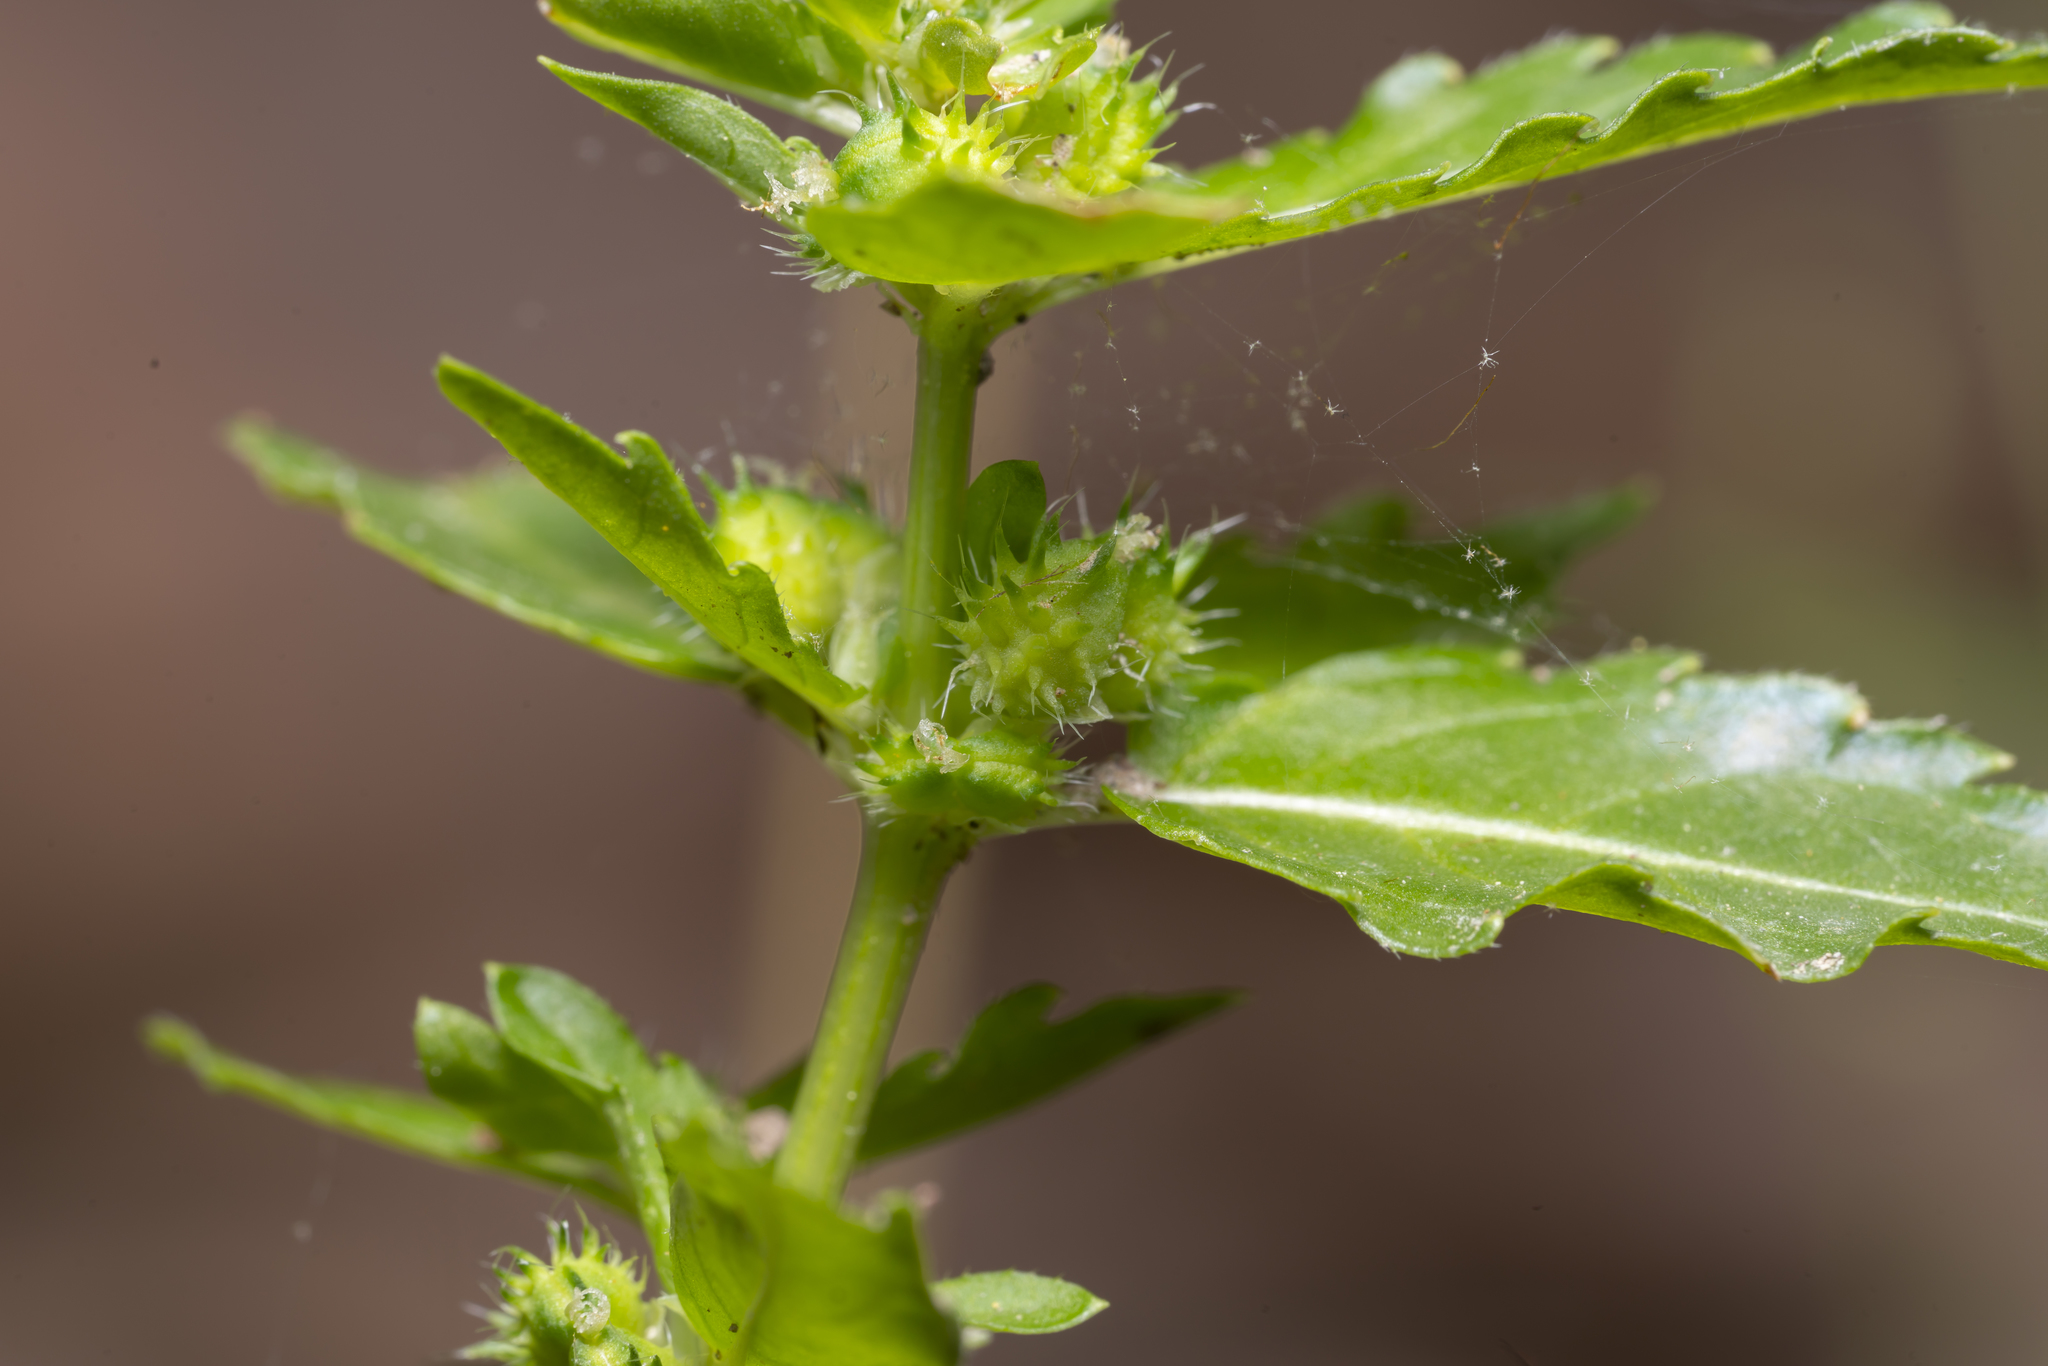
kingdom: Plantae
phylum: Tracheophyta
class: Magnoliopsida
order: Malpighiales
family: Euphorbiaceae
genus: Mercurialis
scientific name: Mercurialis annua
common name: Annual mercury
